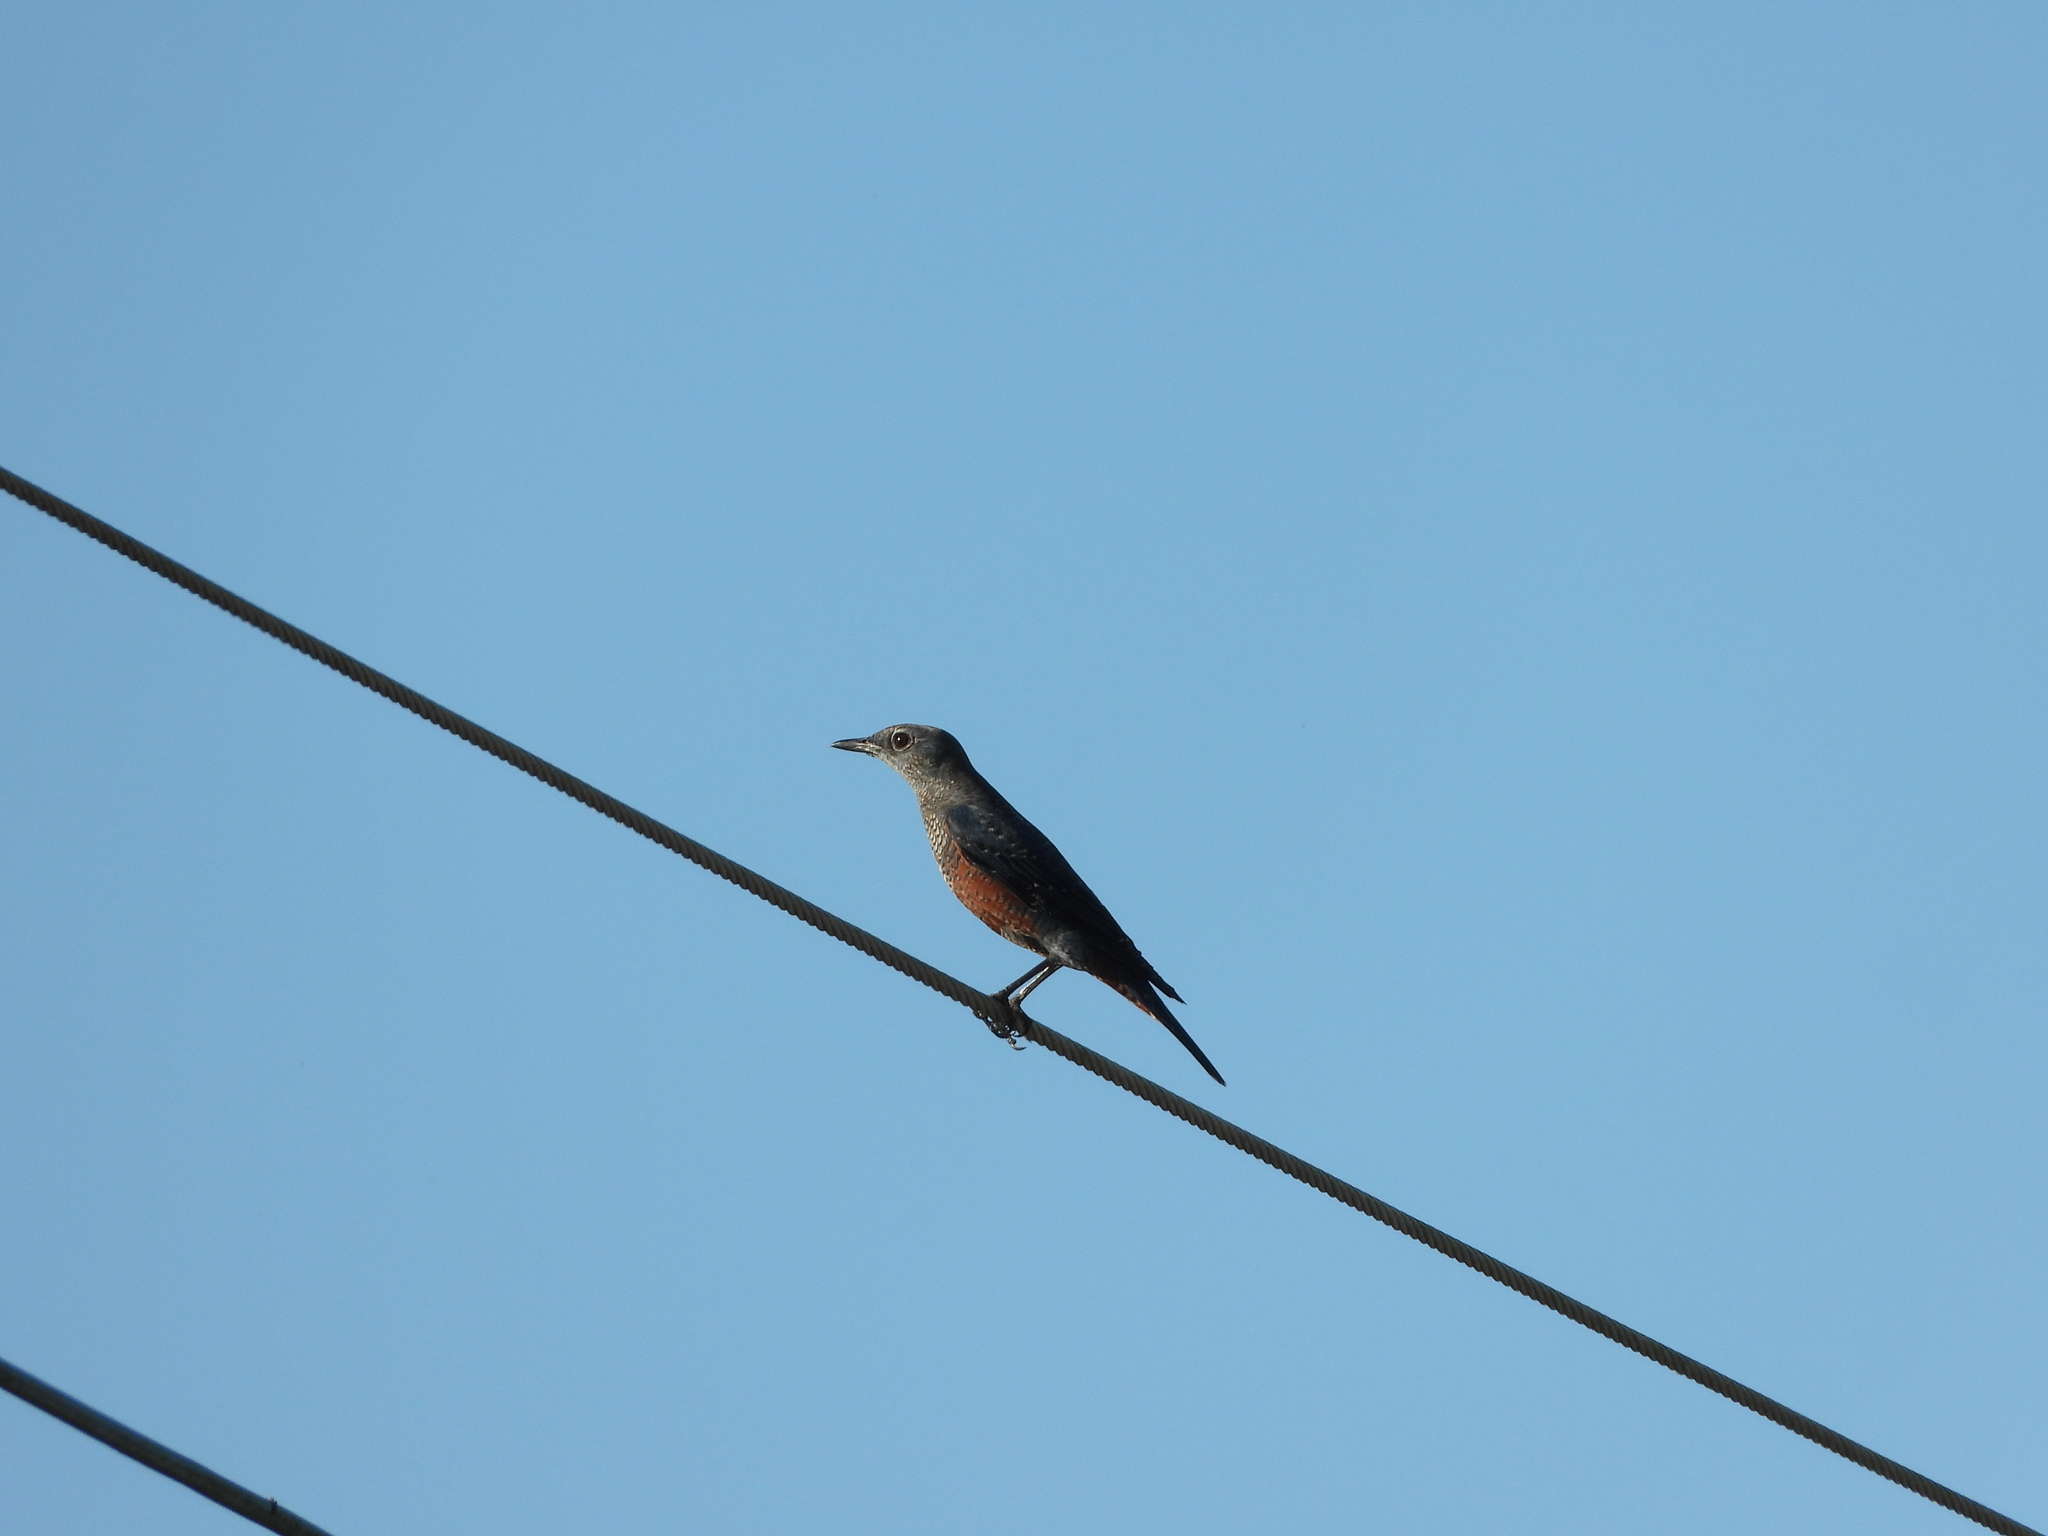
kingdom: Animalia
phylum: Chordata
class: Aves
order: Passeriformes
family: Muscicapidae
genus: Monticola
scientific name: Monticola solitarius
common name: Blue rock thrush
